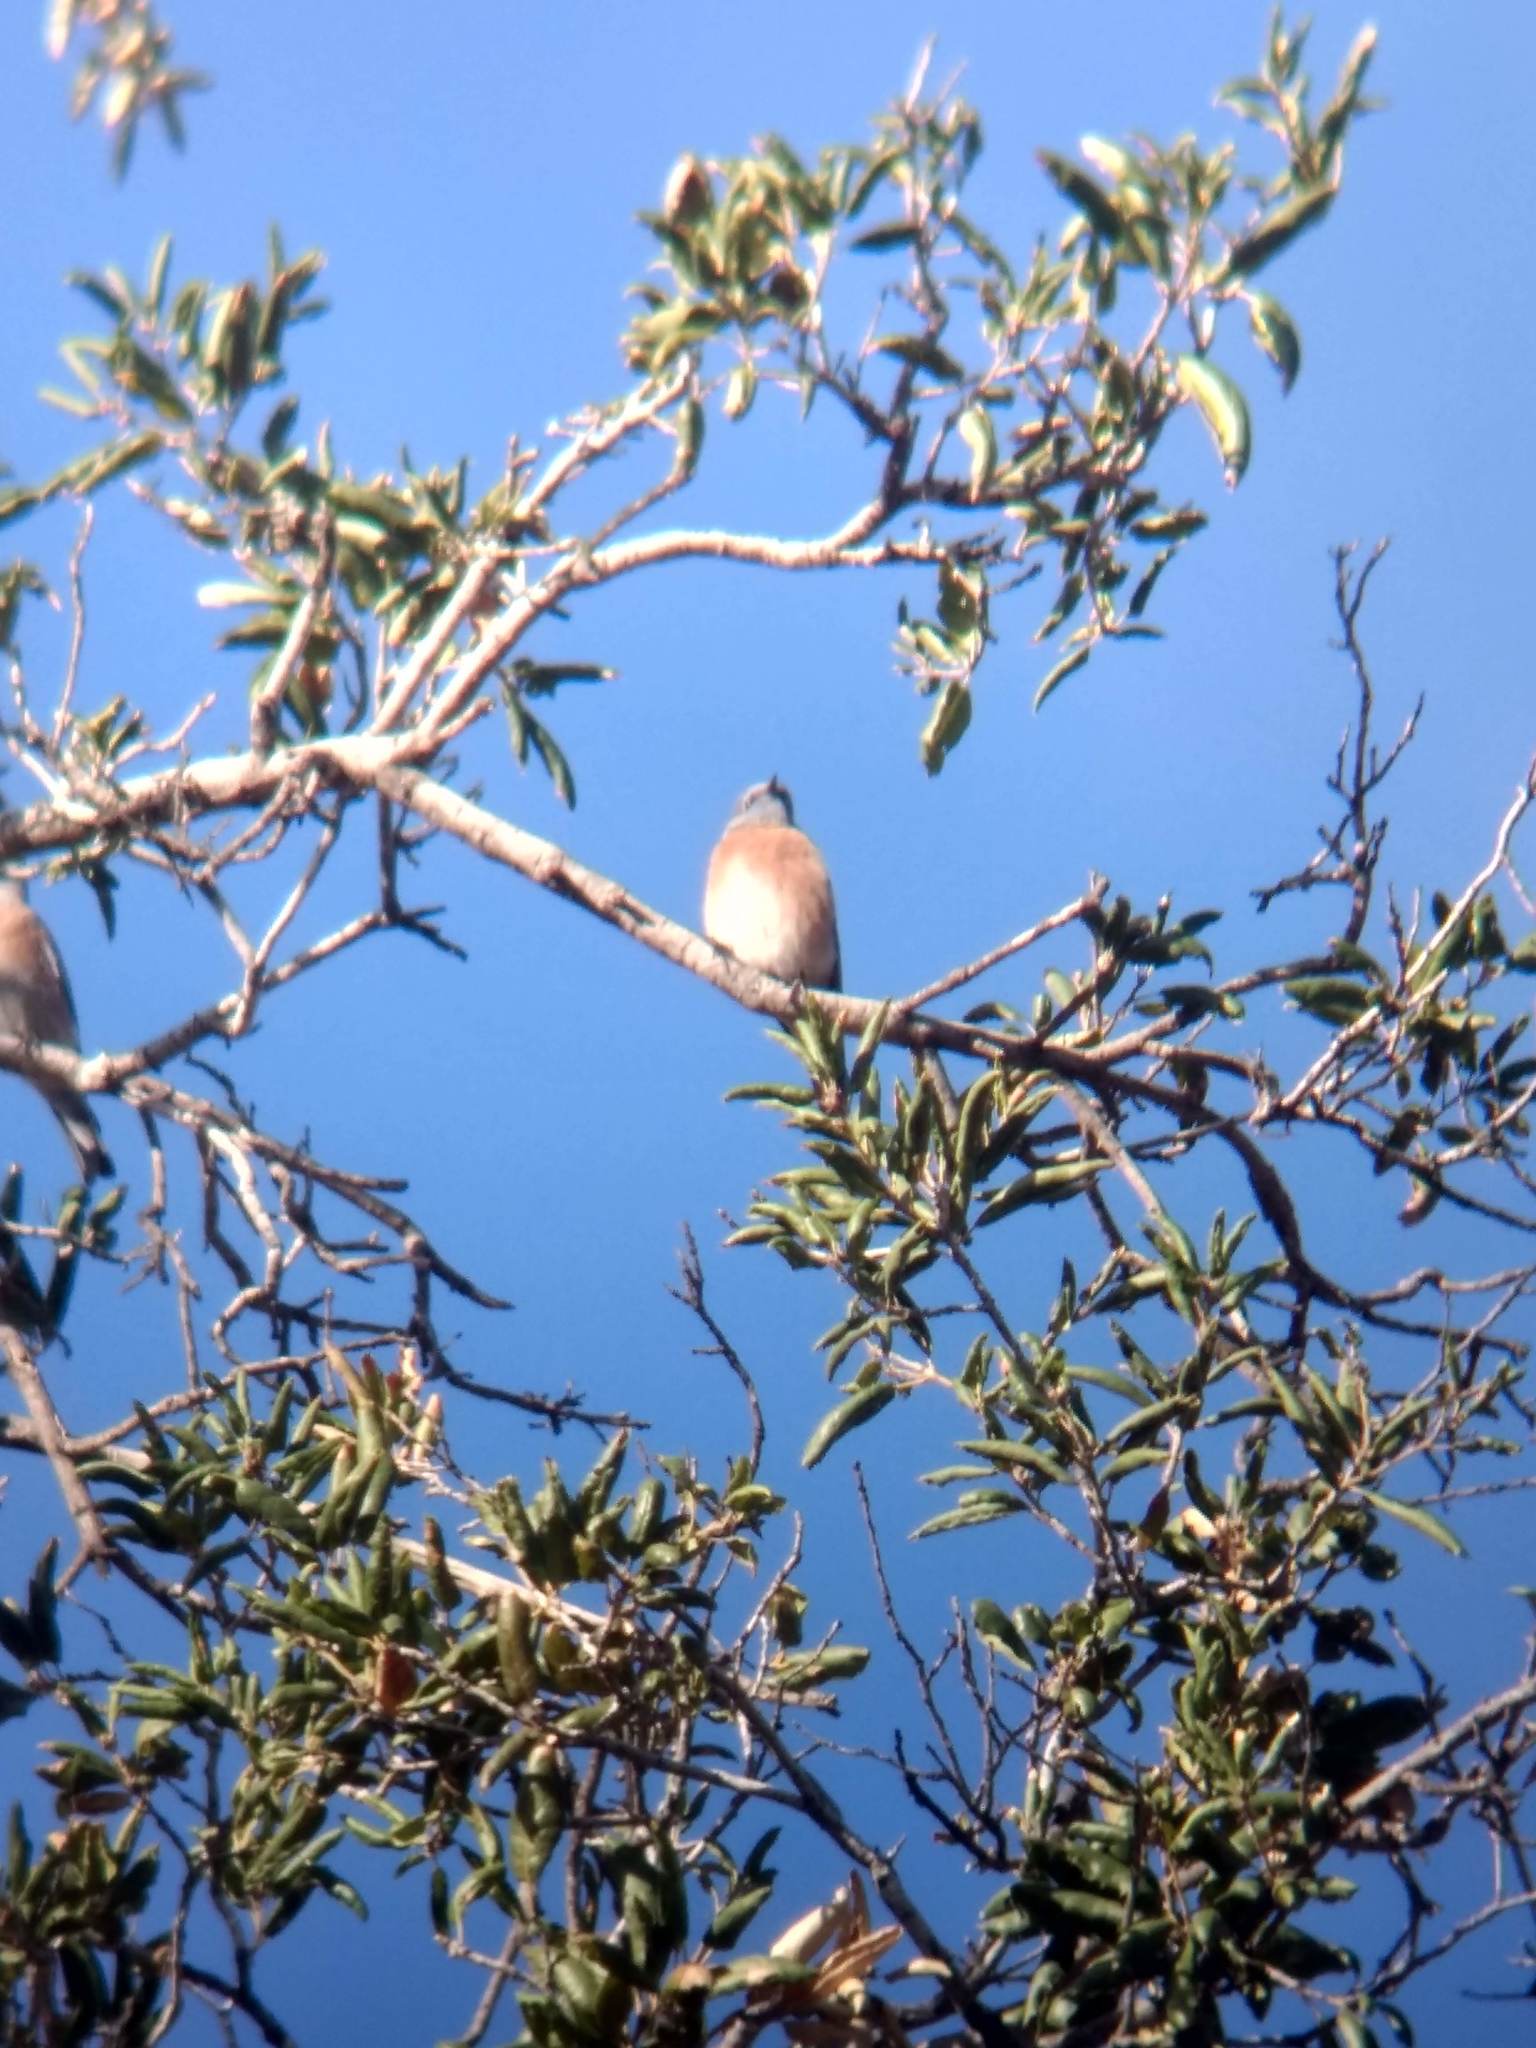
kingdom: Animalia
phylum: Chordata
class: Aves
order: Passeriformes
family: Turdidae
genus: Sialia
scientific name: Sialia mexicana
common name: Western bluebird
